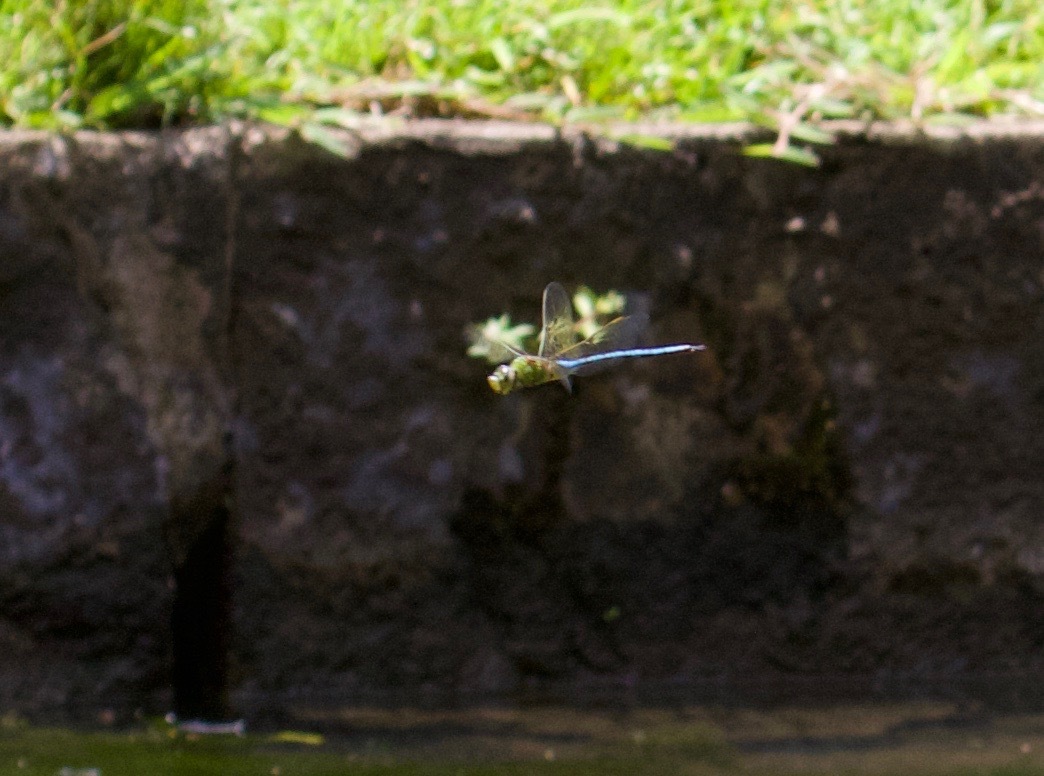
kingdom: Animalia
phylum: Arthropoda
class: Insecta
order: Odonata
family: Aeshnidae
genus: Anax
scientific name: Anax imperator
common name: Emperor dragonfly
